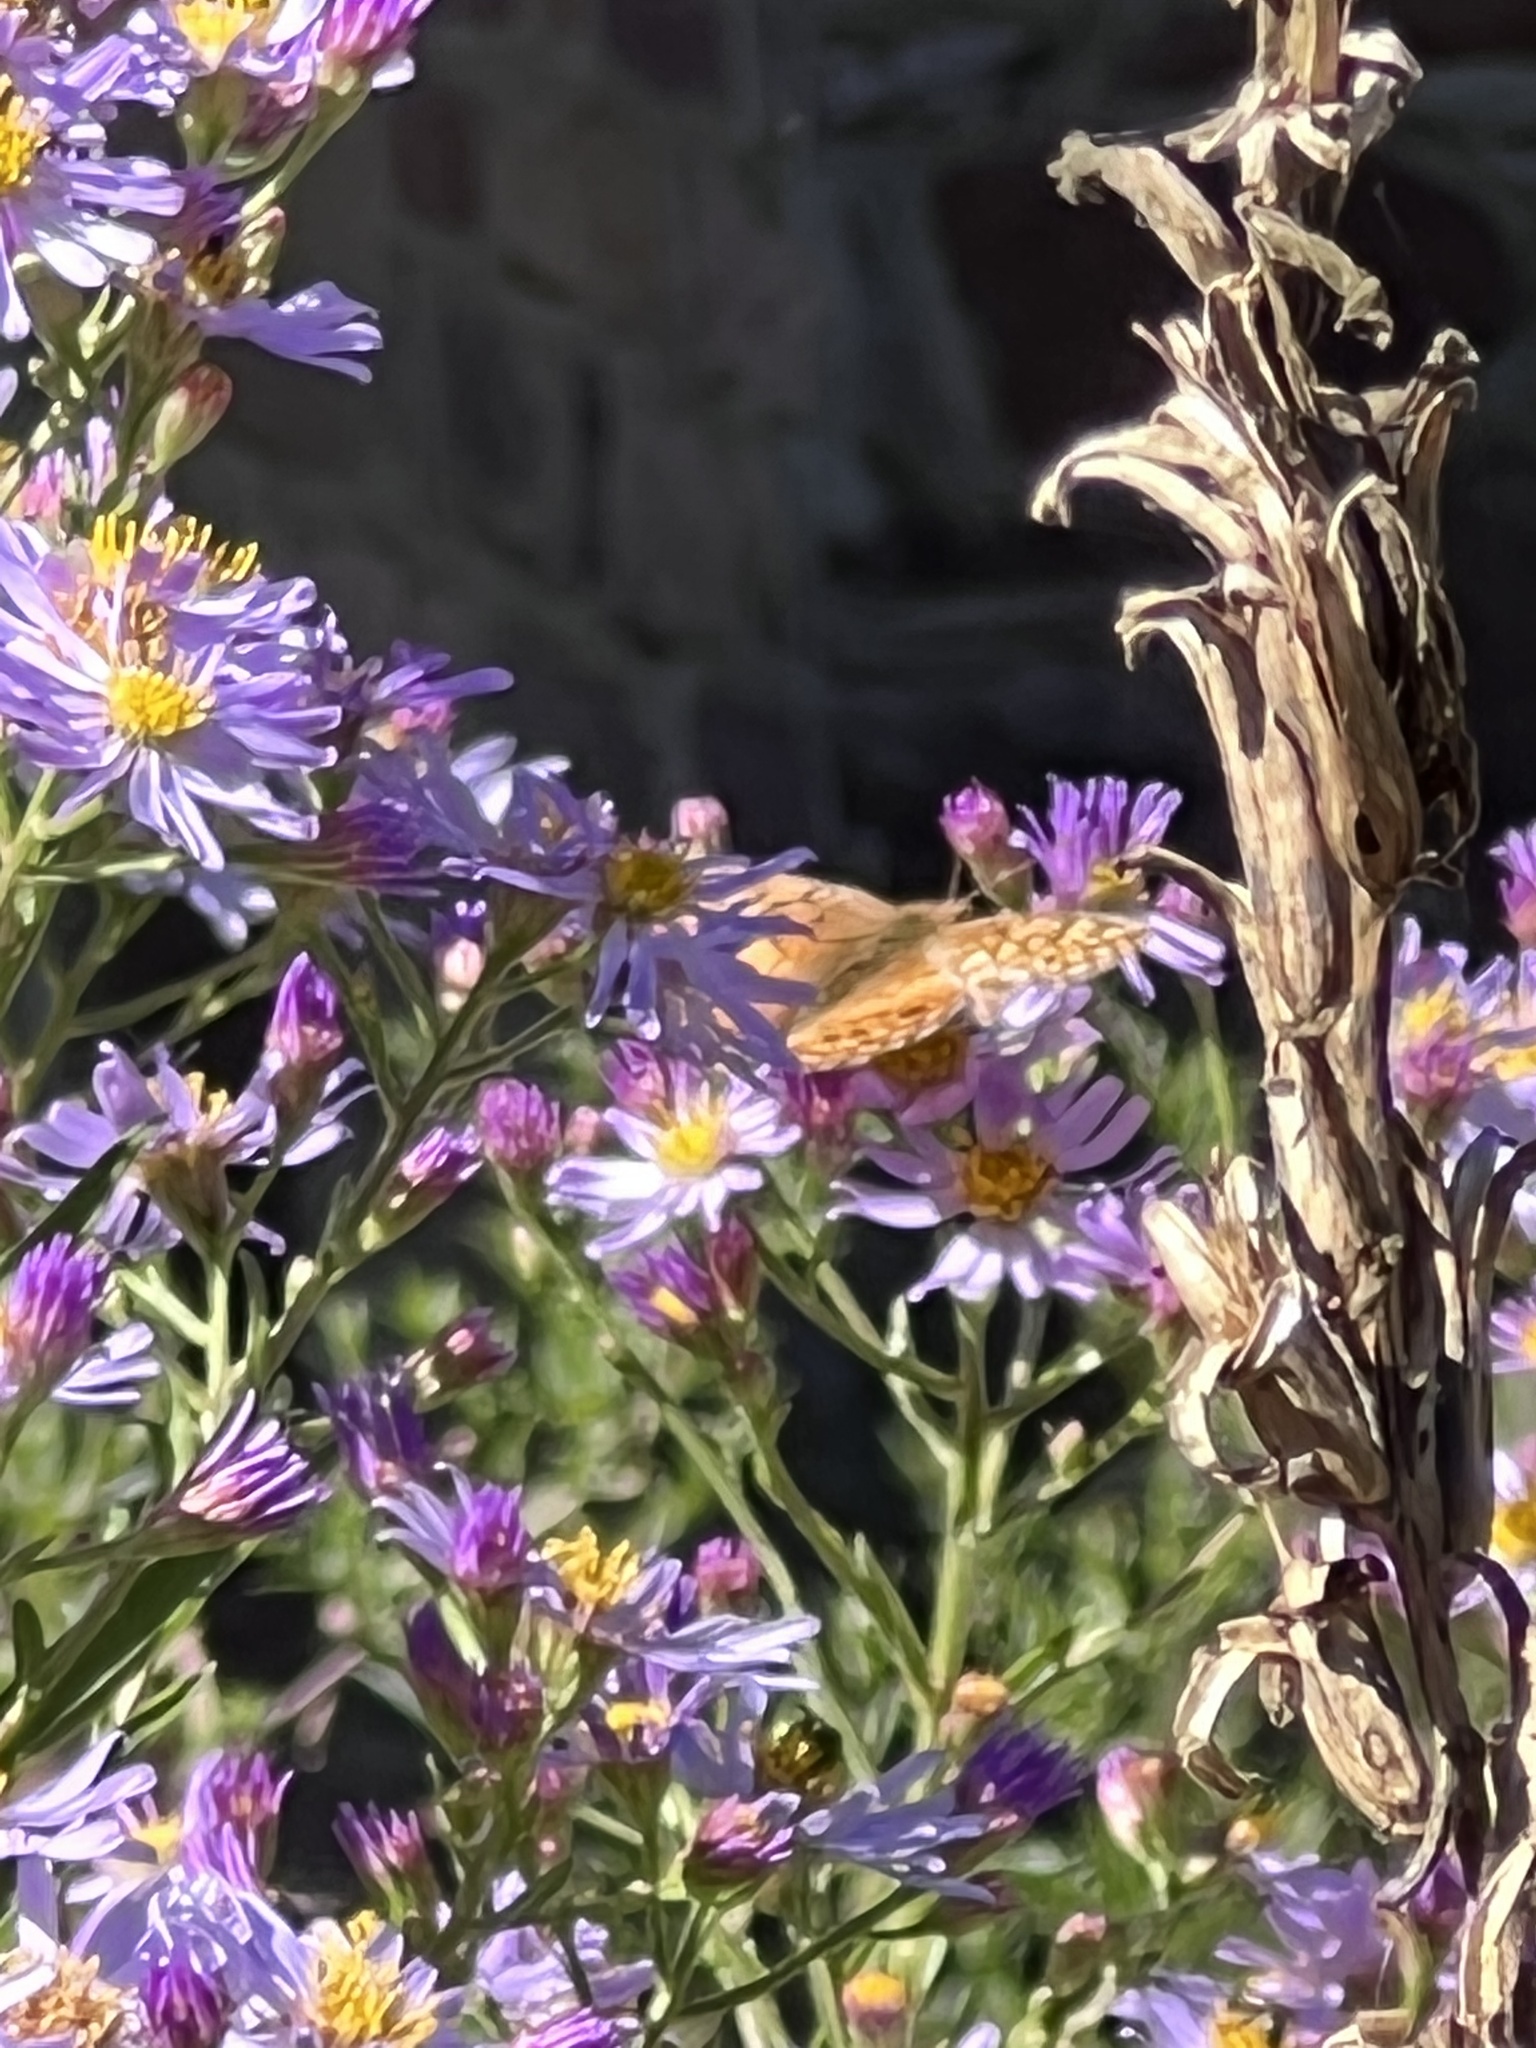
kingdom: Animalia
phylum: Arthropoda
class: Insecta
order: Lepidoptera
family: Nymphalidae
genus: Euptoieta
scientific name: Euptoieta claudia
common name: Variegated fritillary
